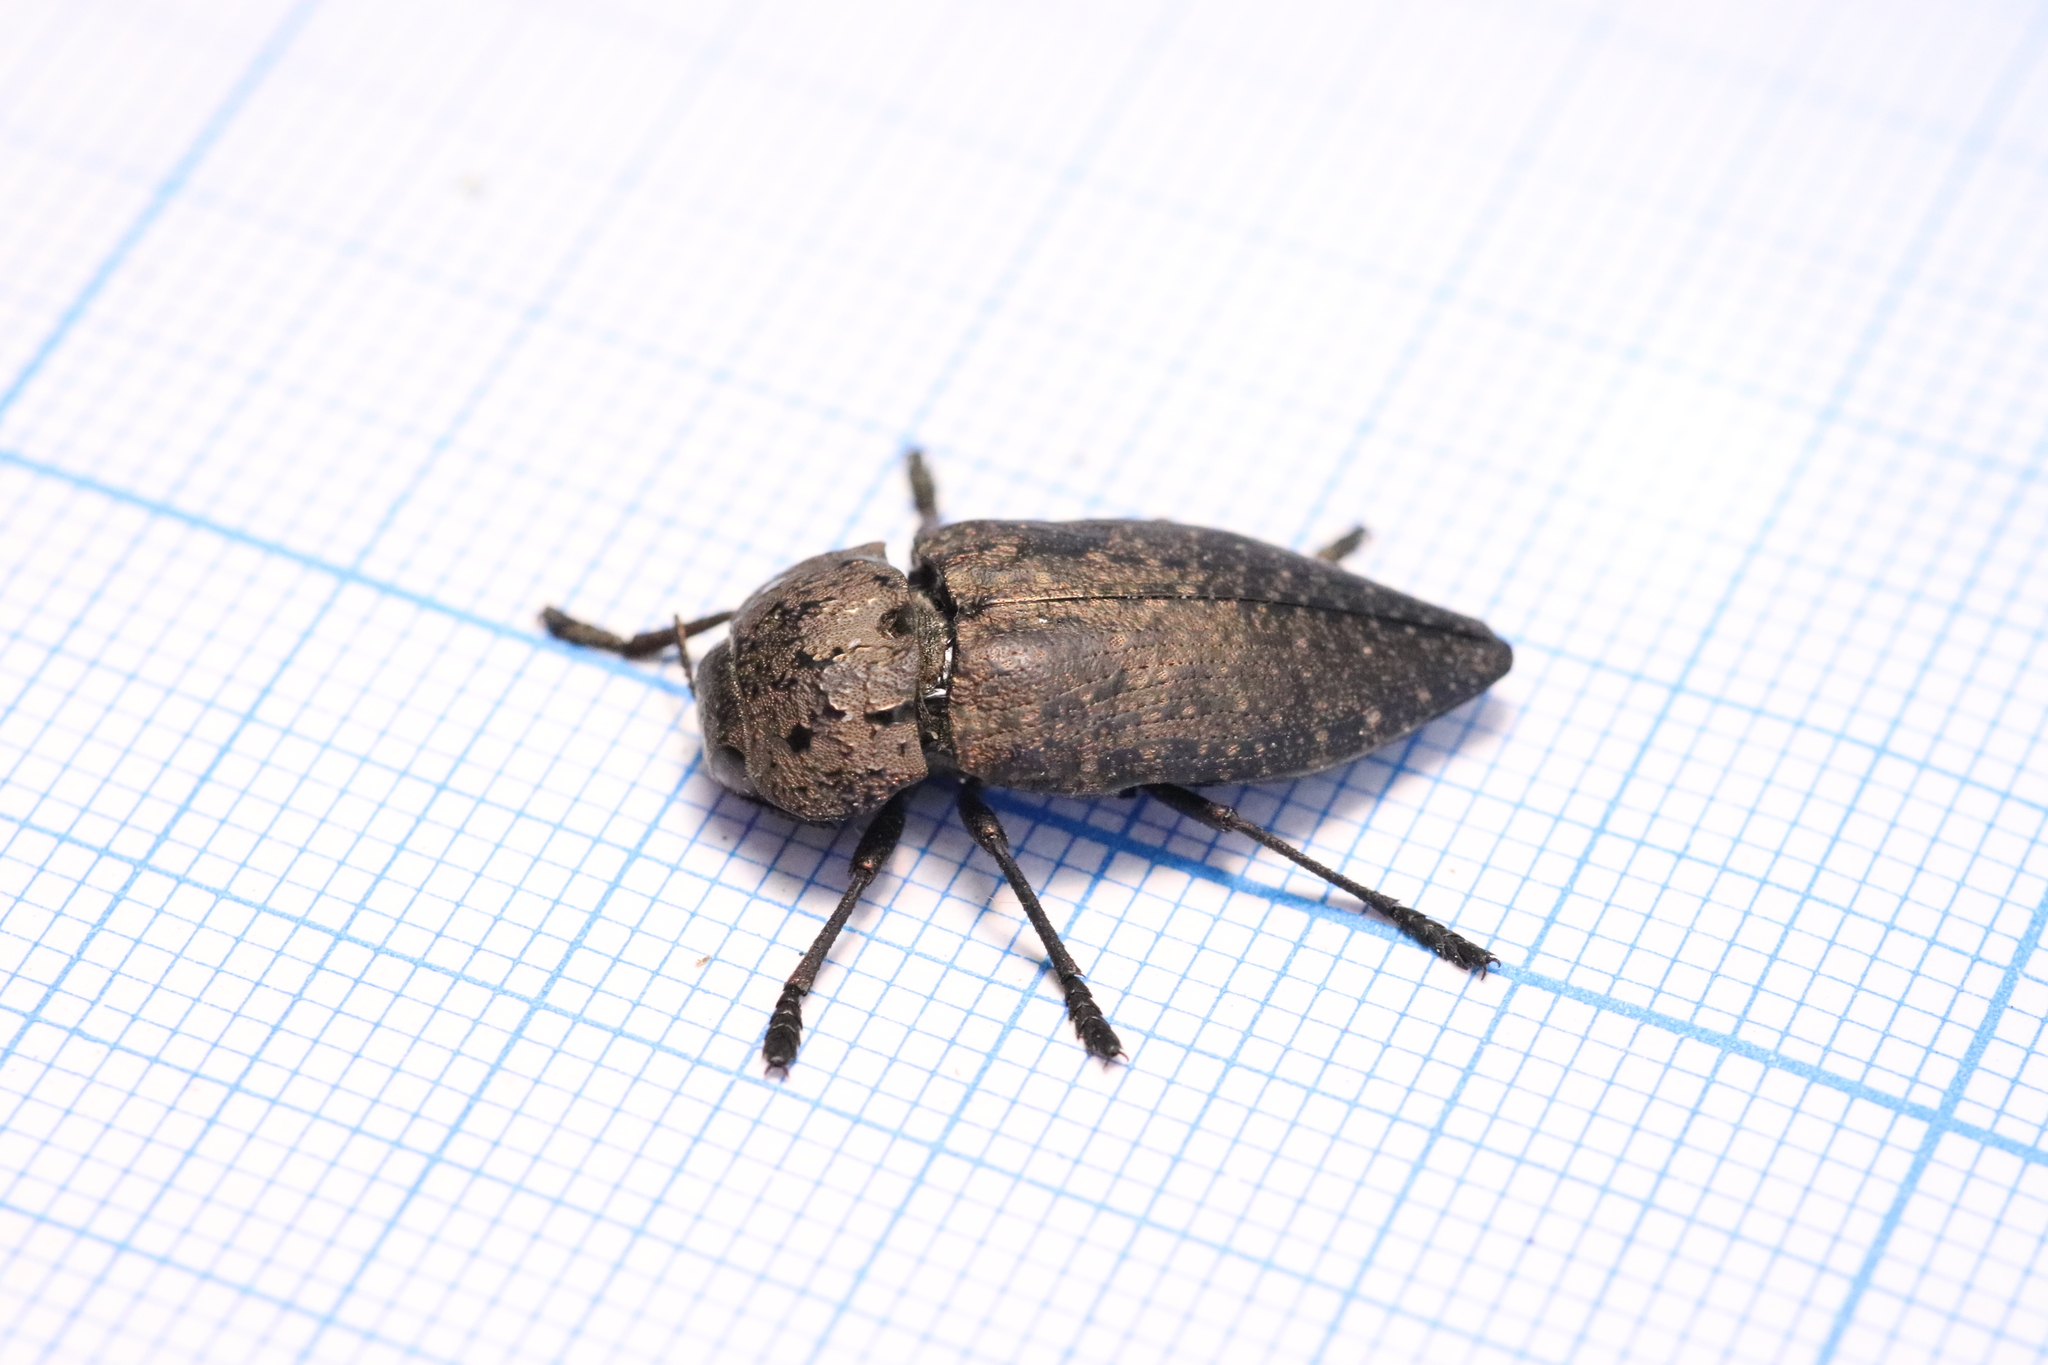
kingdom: Animalia
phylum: Arthropoda
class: Insecta
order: Coleoptera
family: Buprestidae
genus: Capnodis
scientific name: Capnodis tenebricosa
